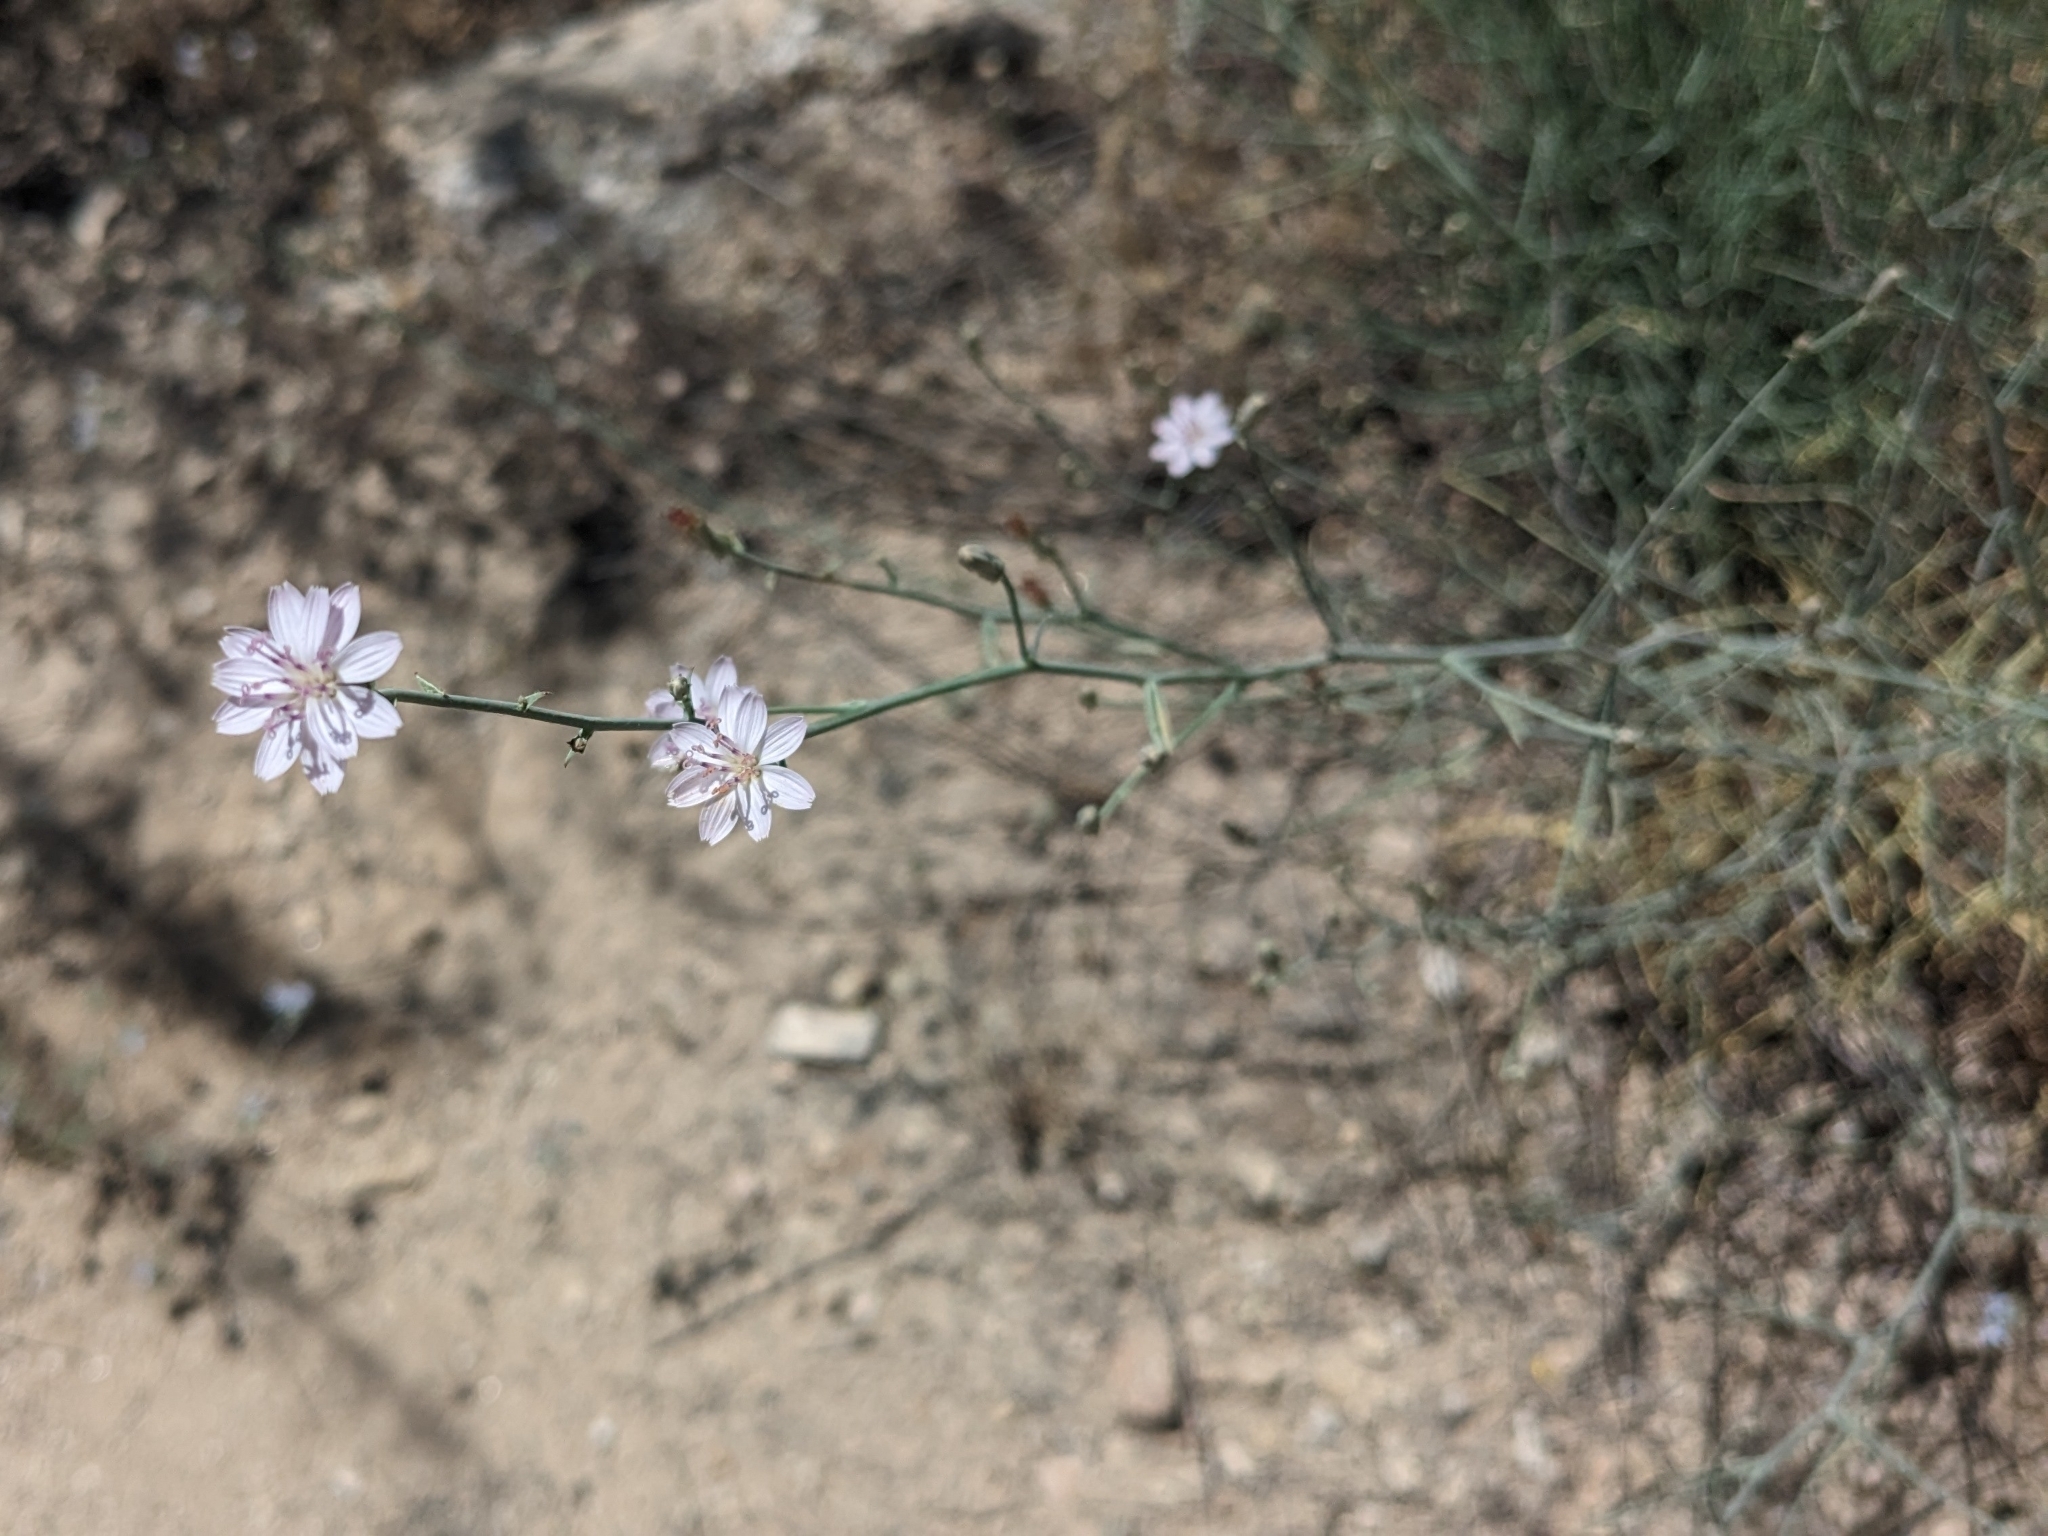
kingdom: Plantae
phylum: Tracheophyta
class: Magnoliopsida
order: Asterales
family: Asteraceae
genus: Stephanomeria
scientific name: Stephanomeria pauciflora
